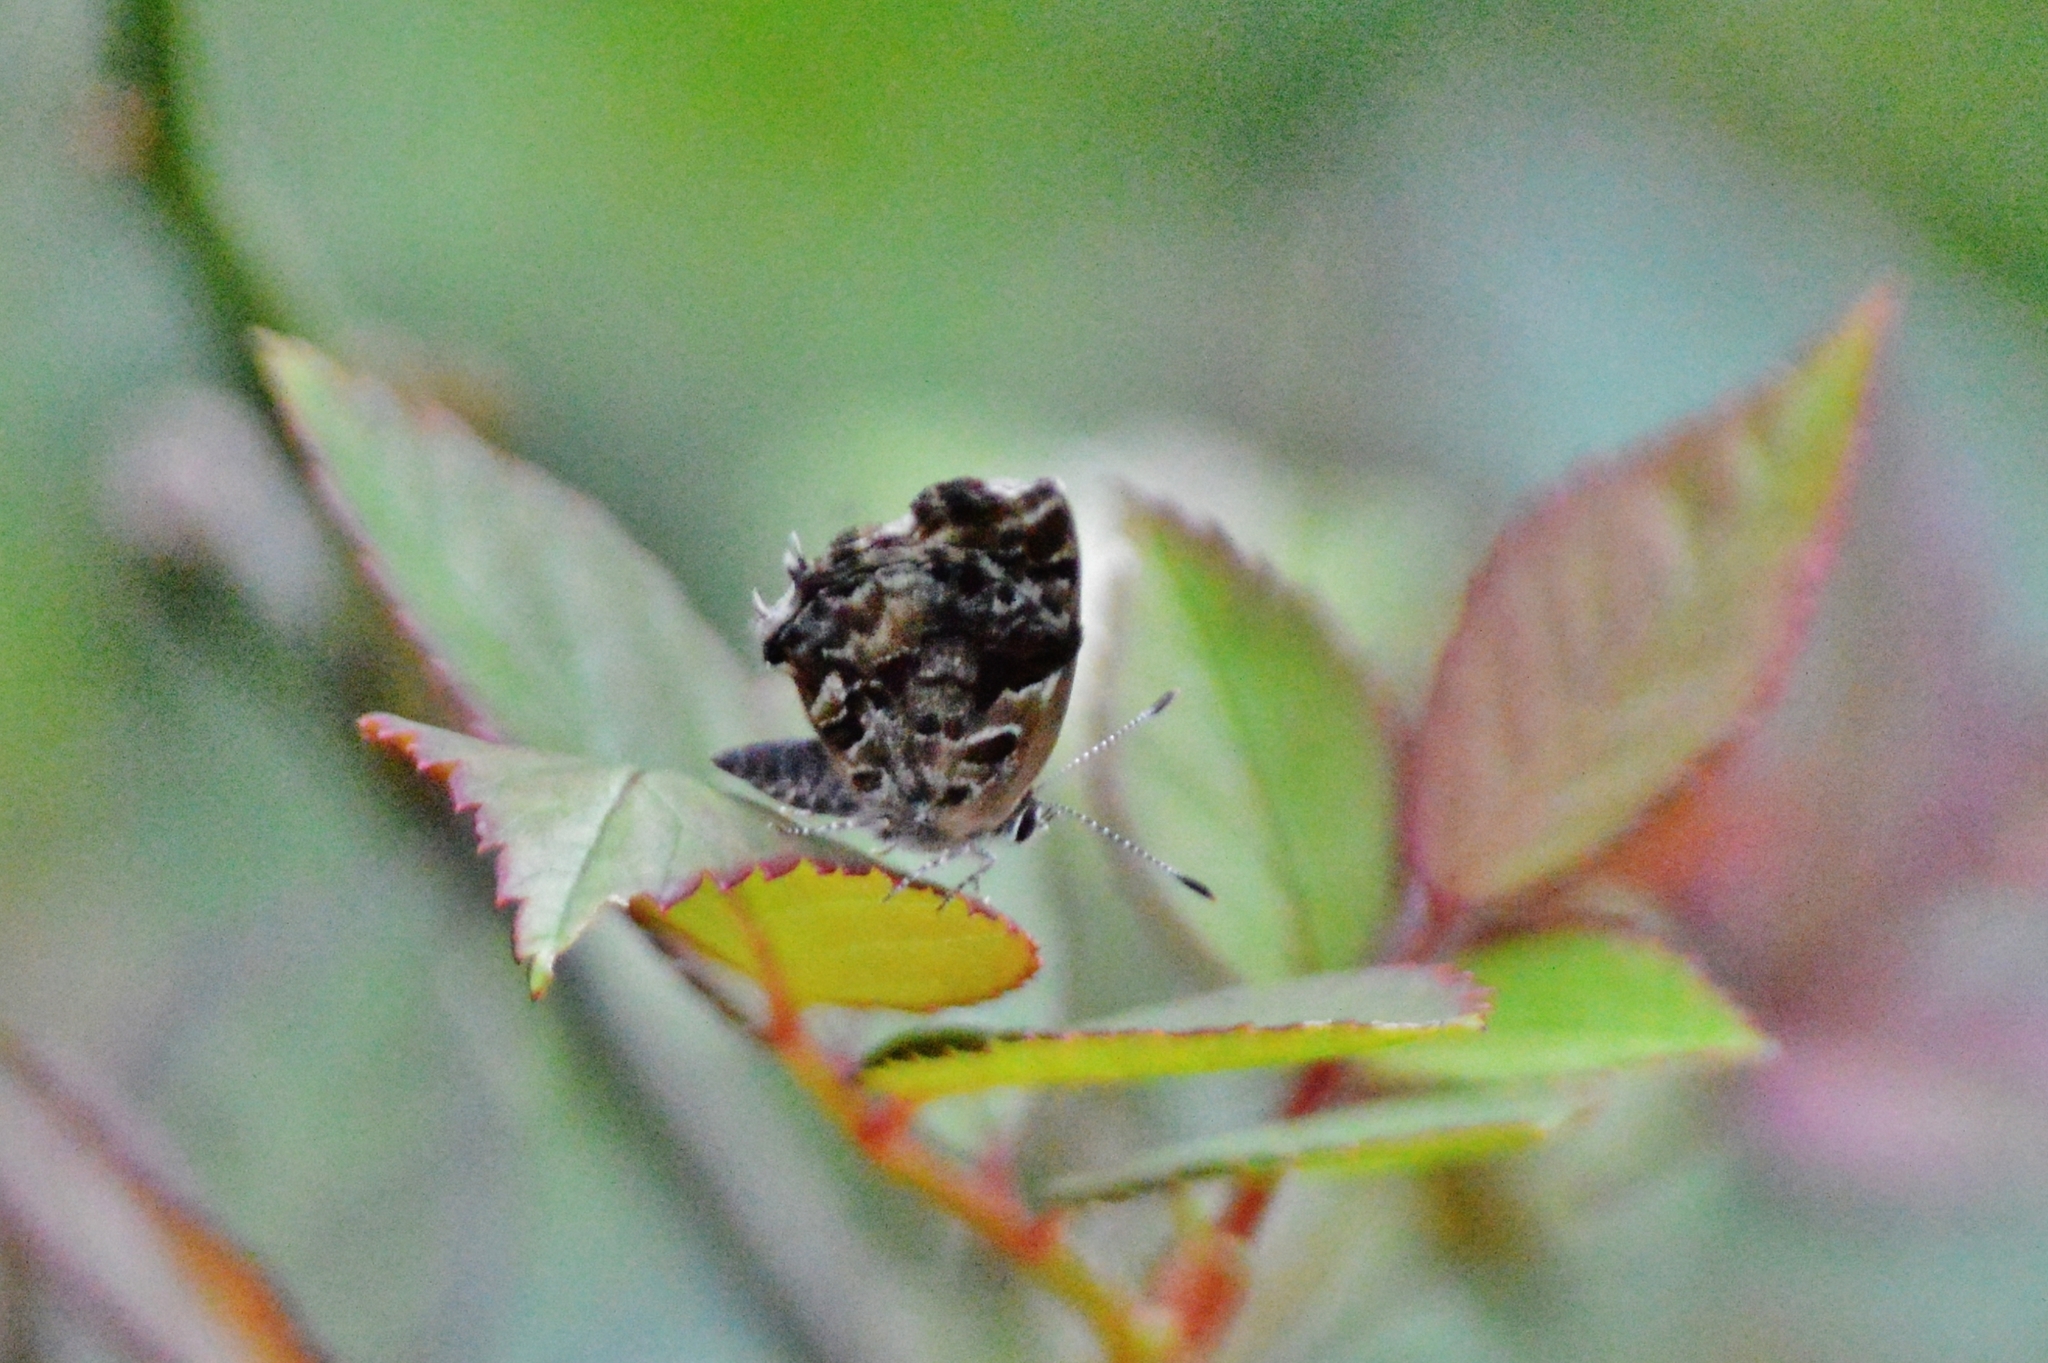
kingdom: Animalia
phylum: Arthropoda
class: Insecta
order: Lepidoptera
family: Lycaenidae
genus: Strymon
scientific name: Strymon
